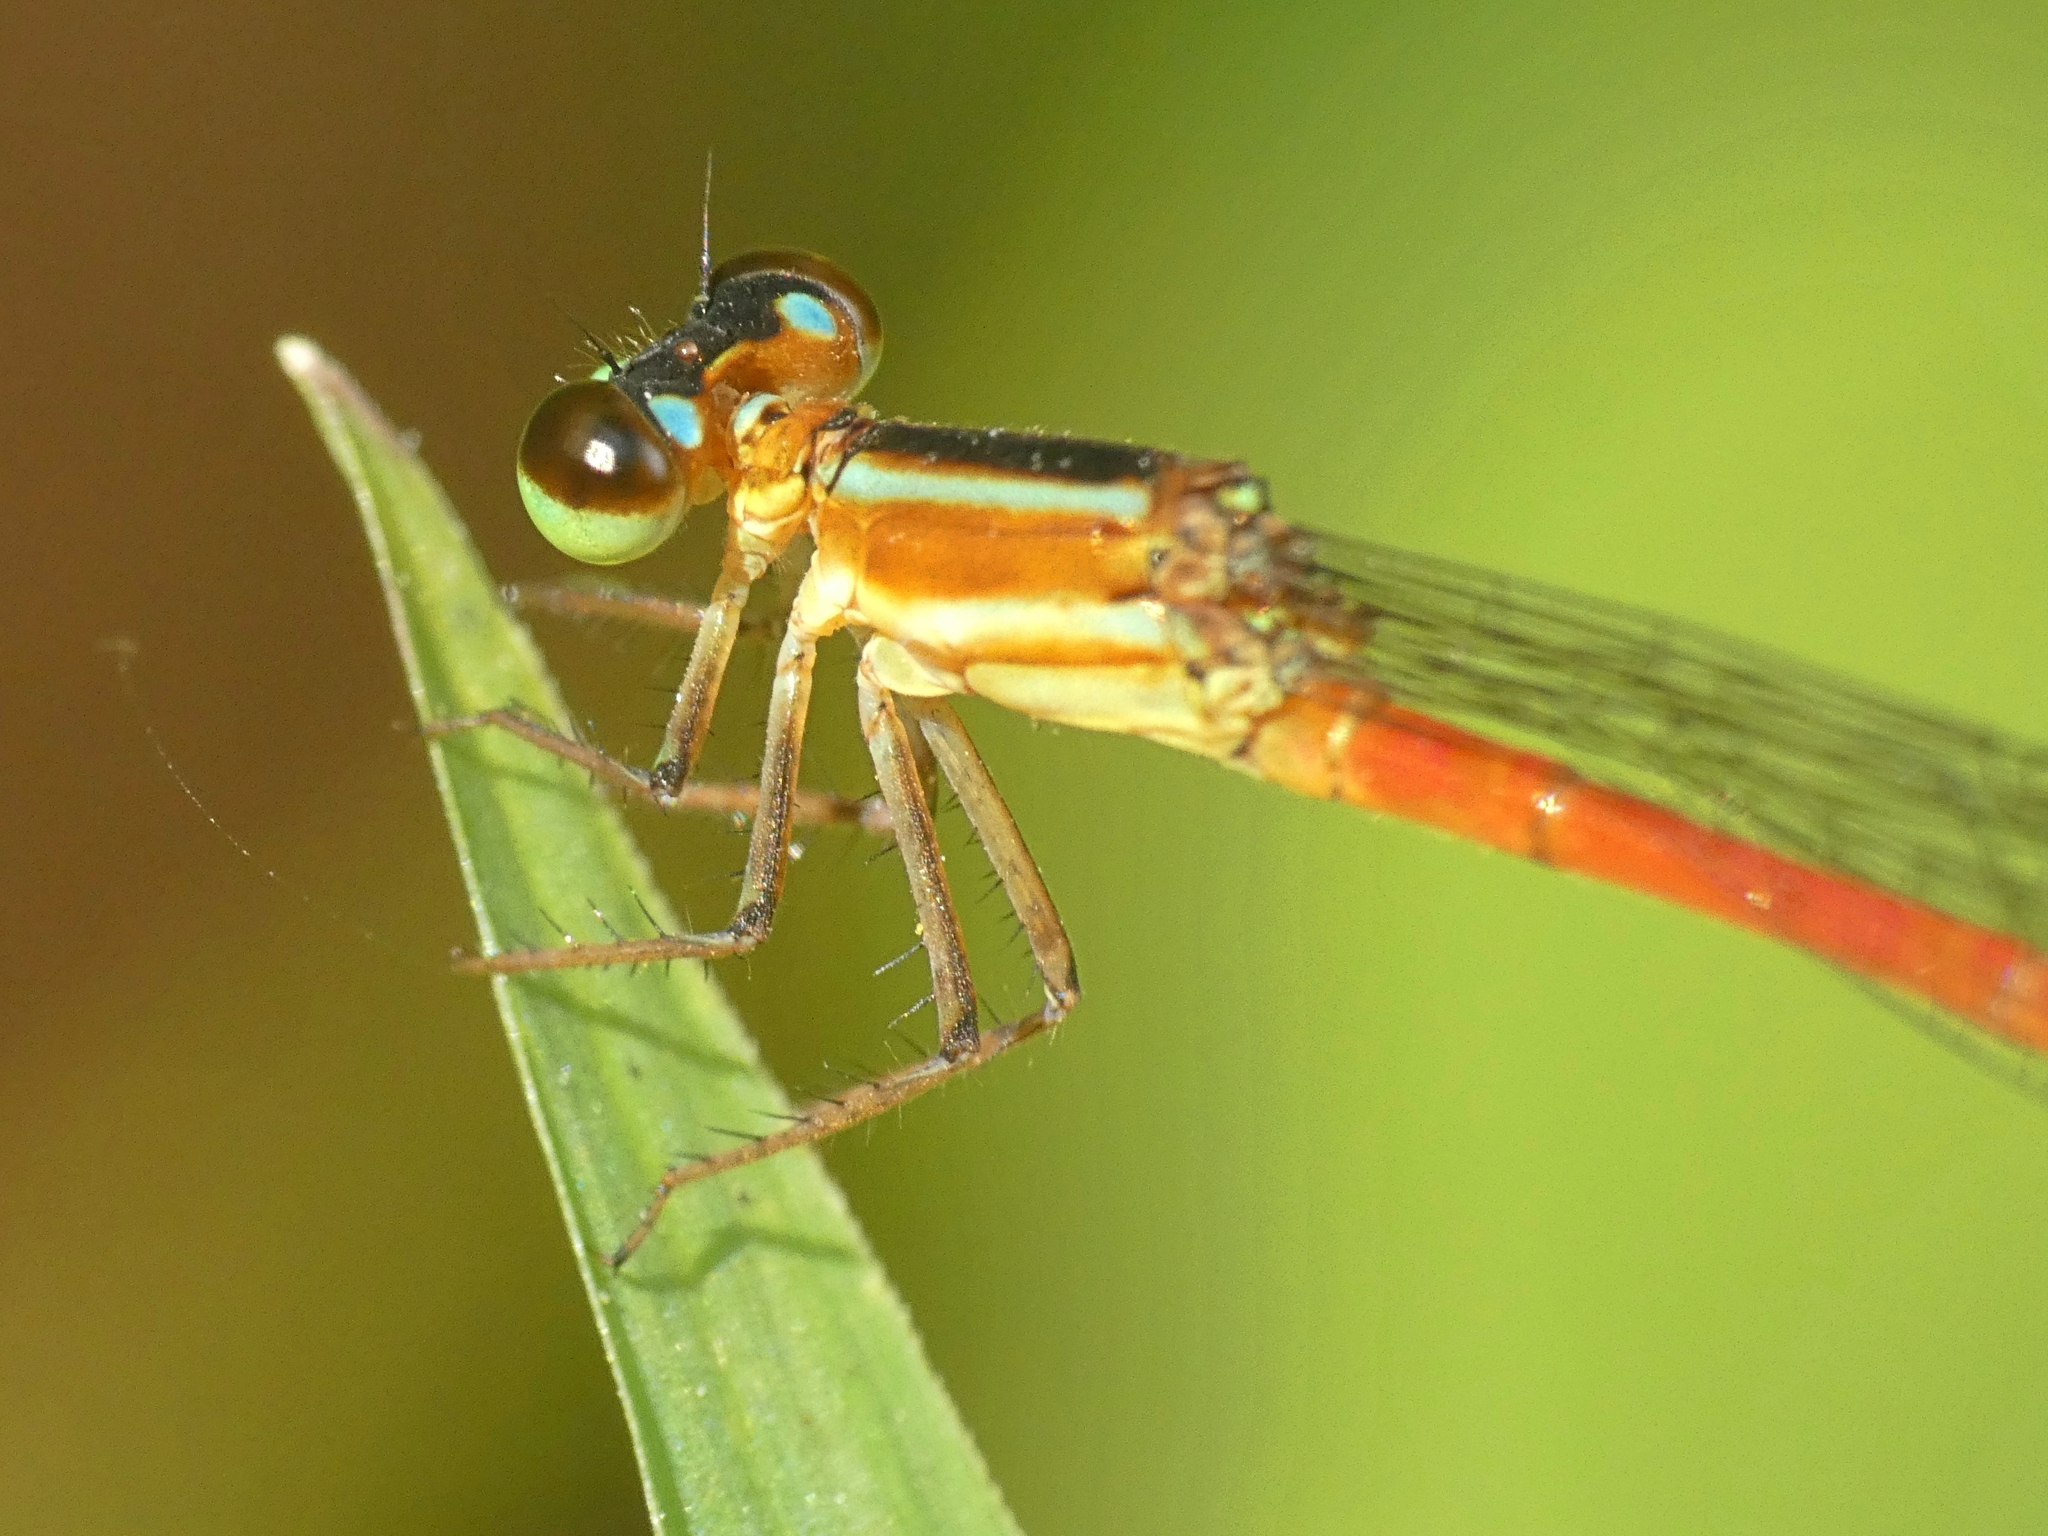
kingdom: Animalia
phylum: Arthropoda
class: Insecta
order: Odonata
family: Coenagrionidae
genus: Argiocnemis
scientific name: Argiocnemis rubescens
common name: Red-tipped shadefly
